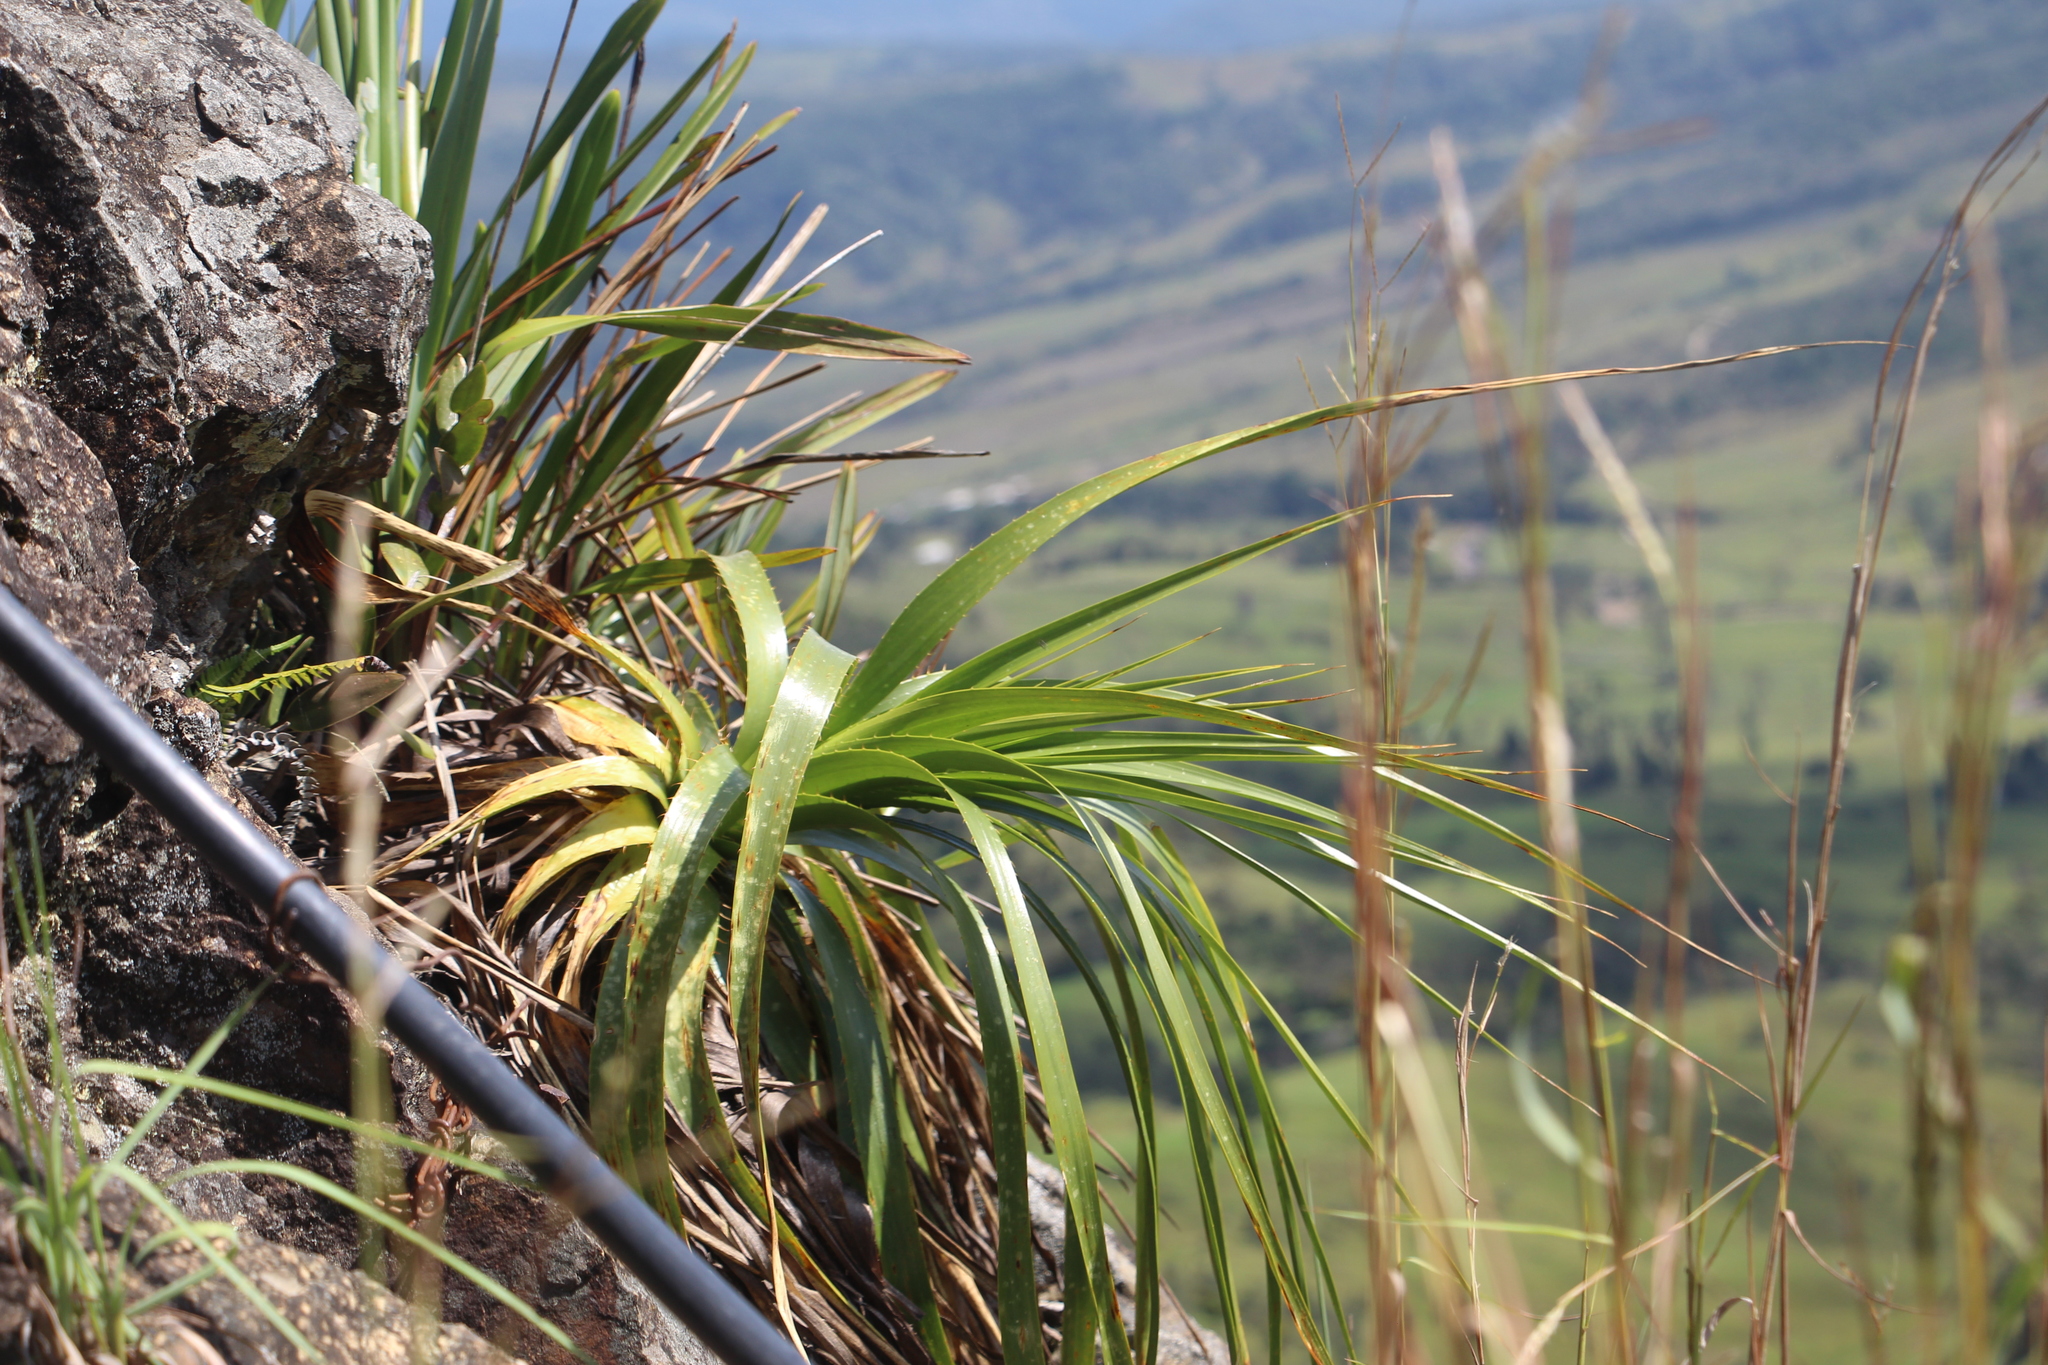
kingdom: Plantae
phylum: Tracheophyta
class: Liliopsida
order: Poales
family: Bromeliaceae
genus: Puya
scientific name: Puya
